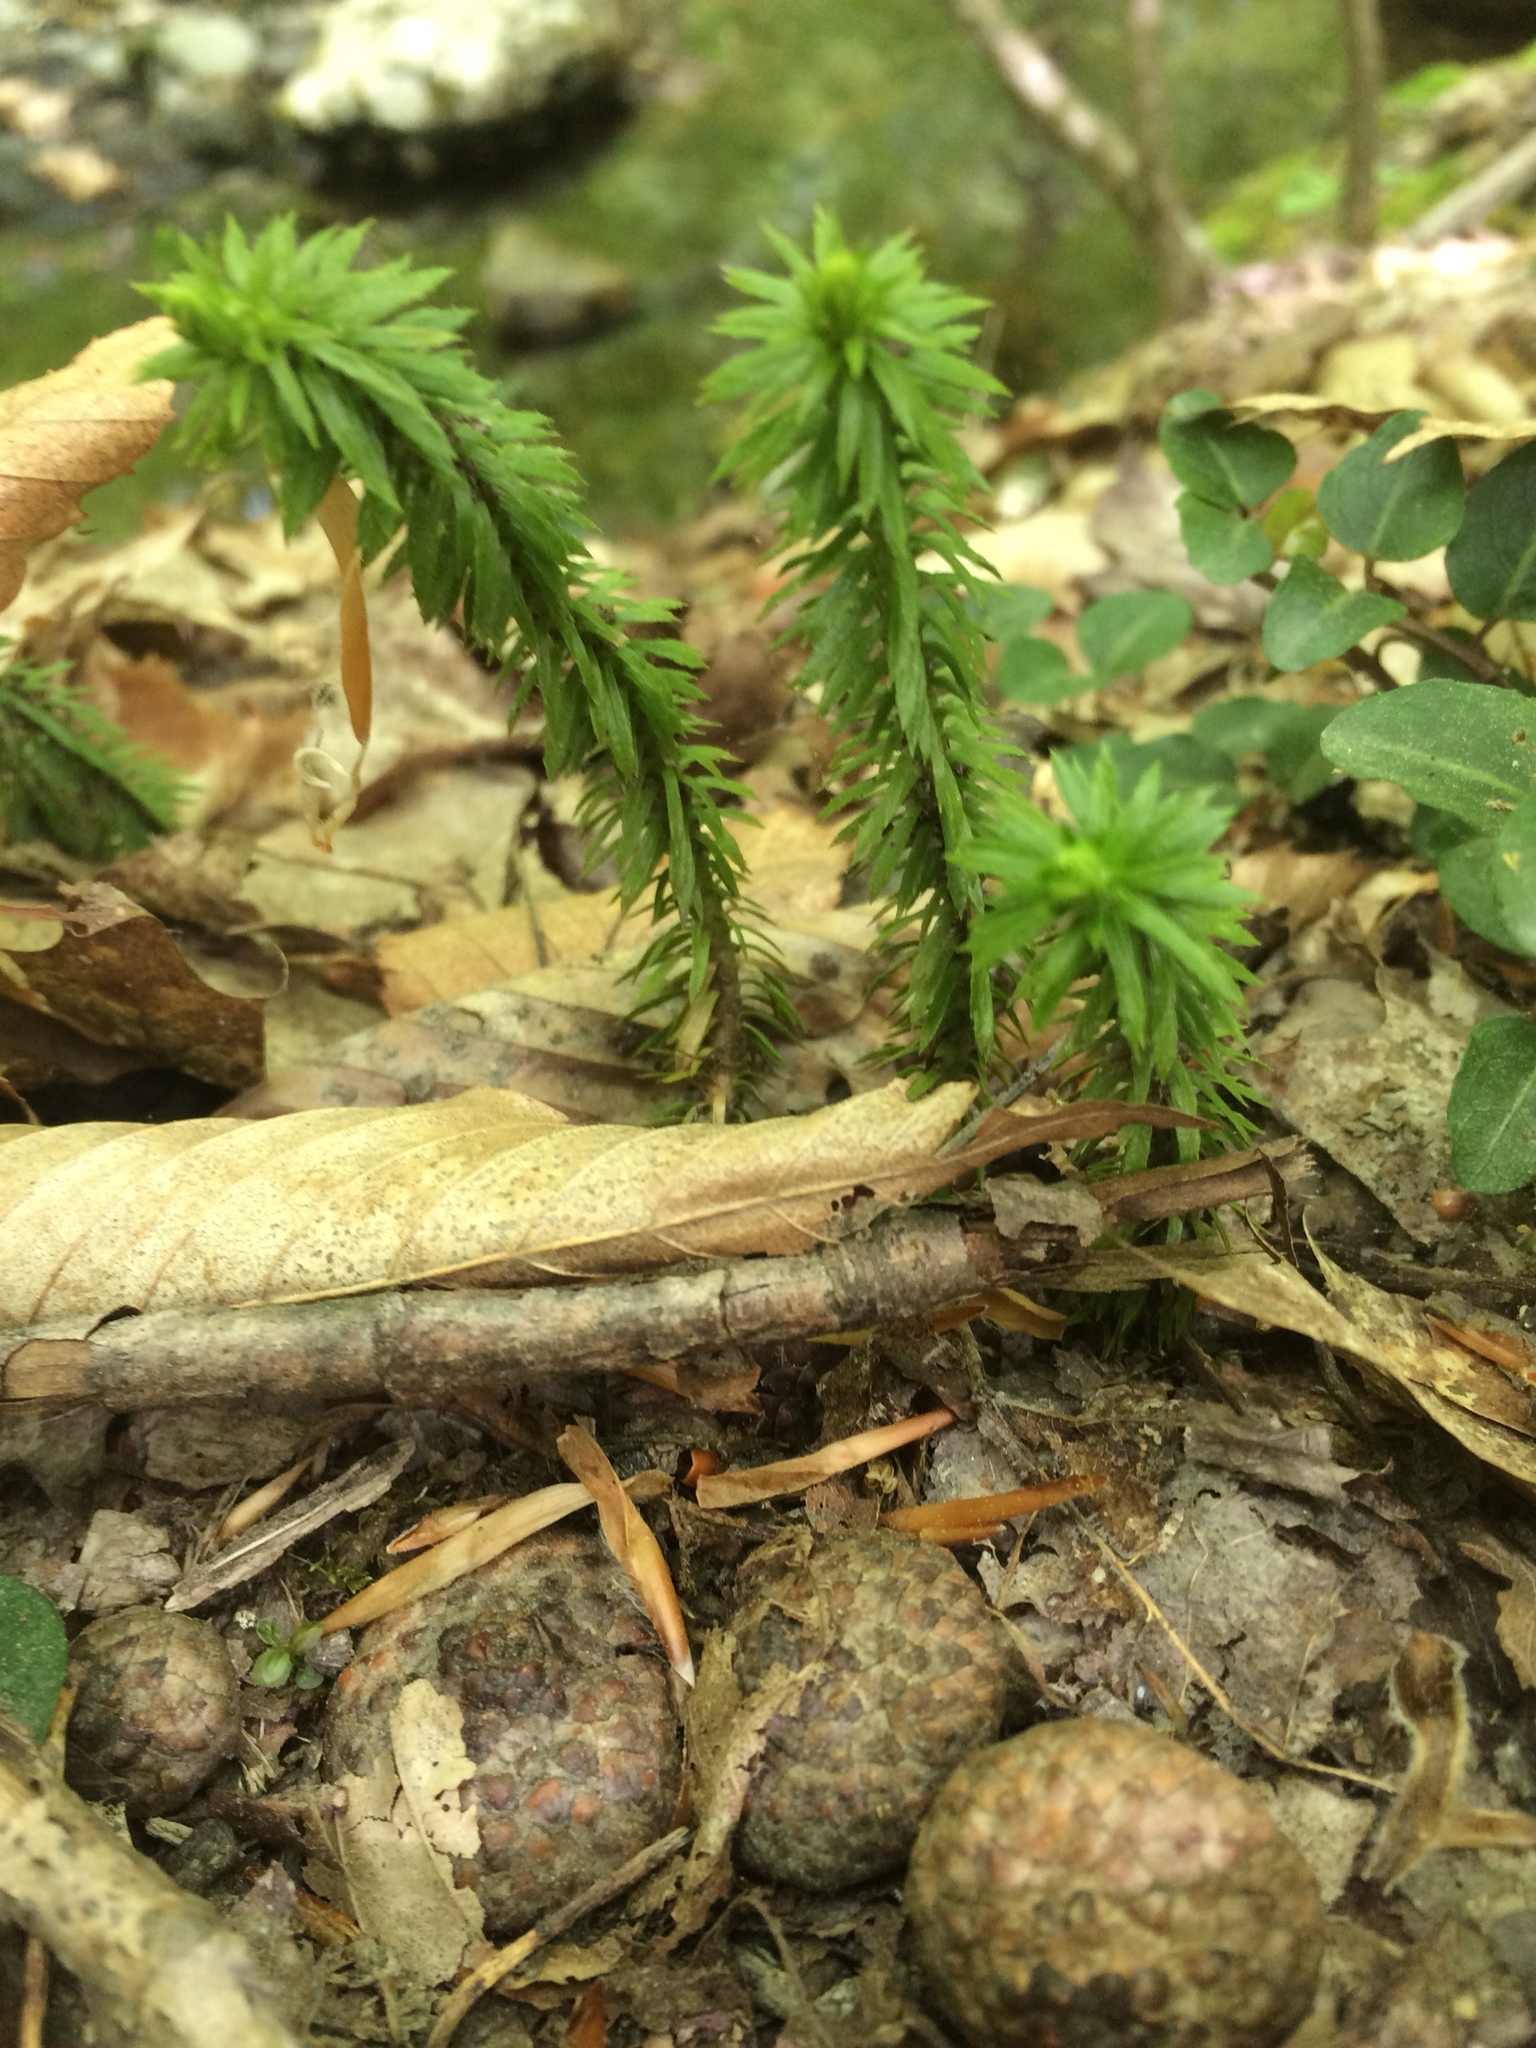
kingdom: Plantae
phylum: Tracheophyta
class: Lycopodiopsida
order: Lycopodiales
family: Lycopodiaceae
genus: Huperzia
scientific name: Huperzia lucidula
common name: Shining clubmoss
